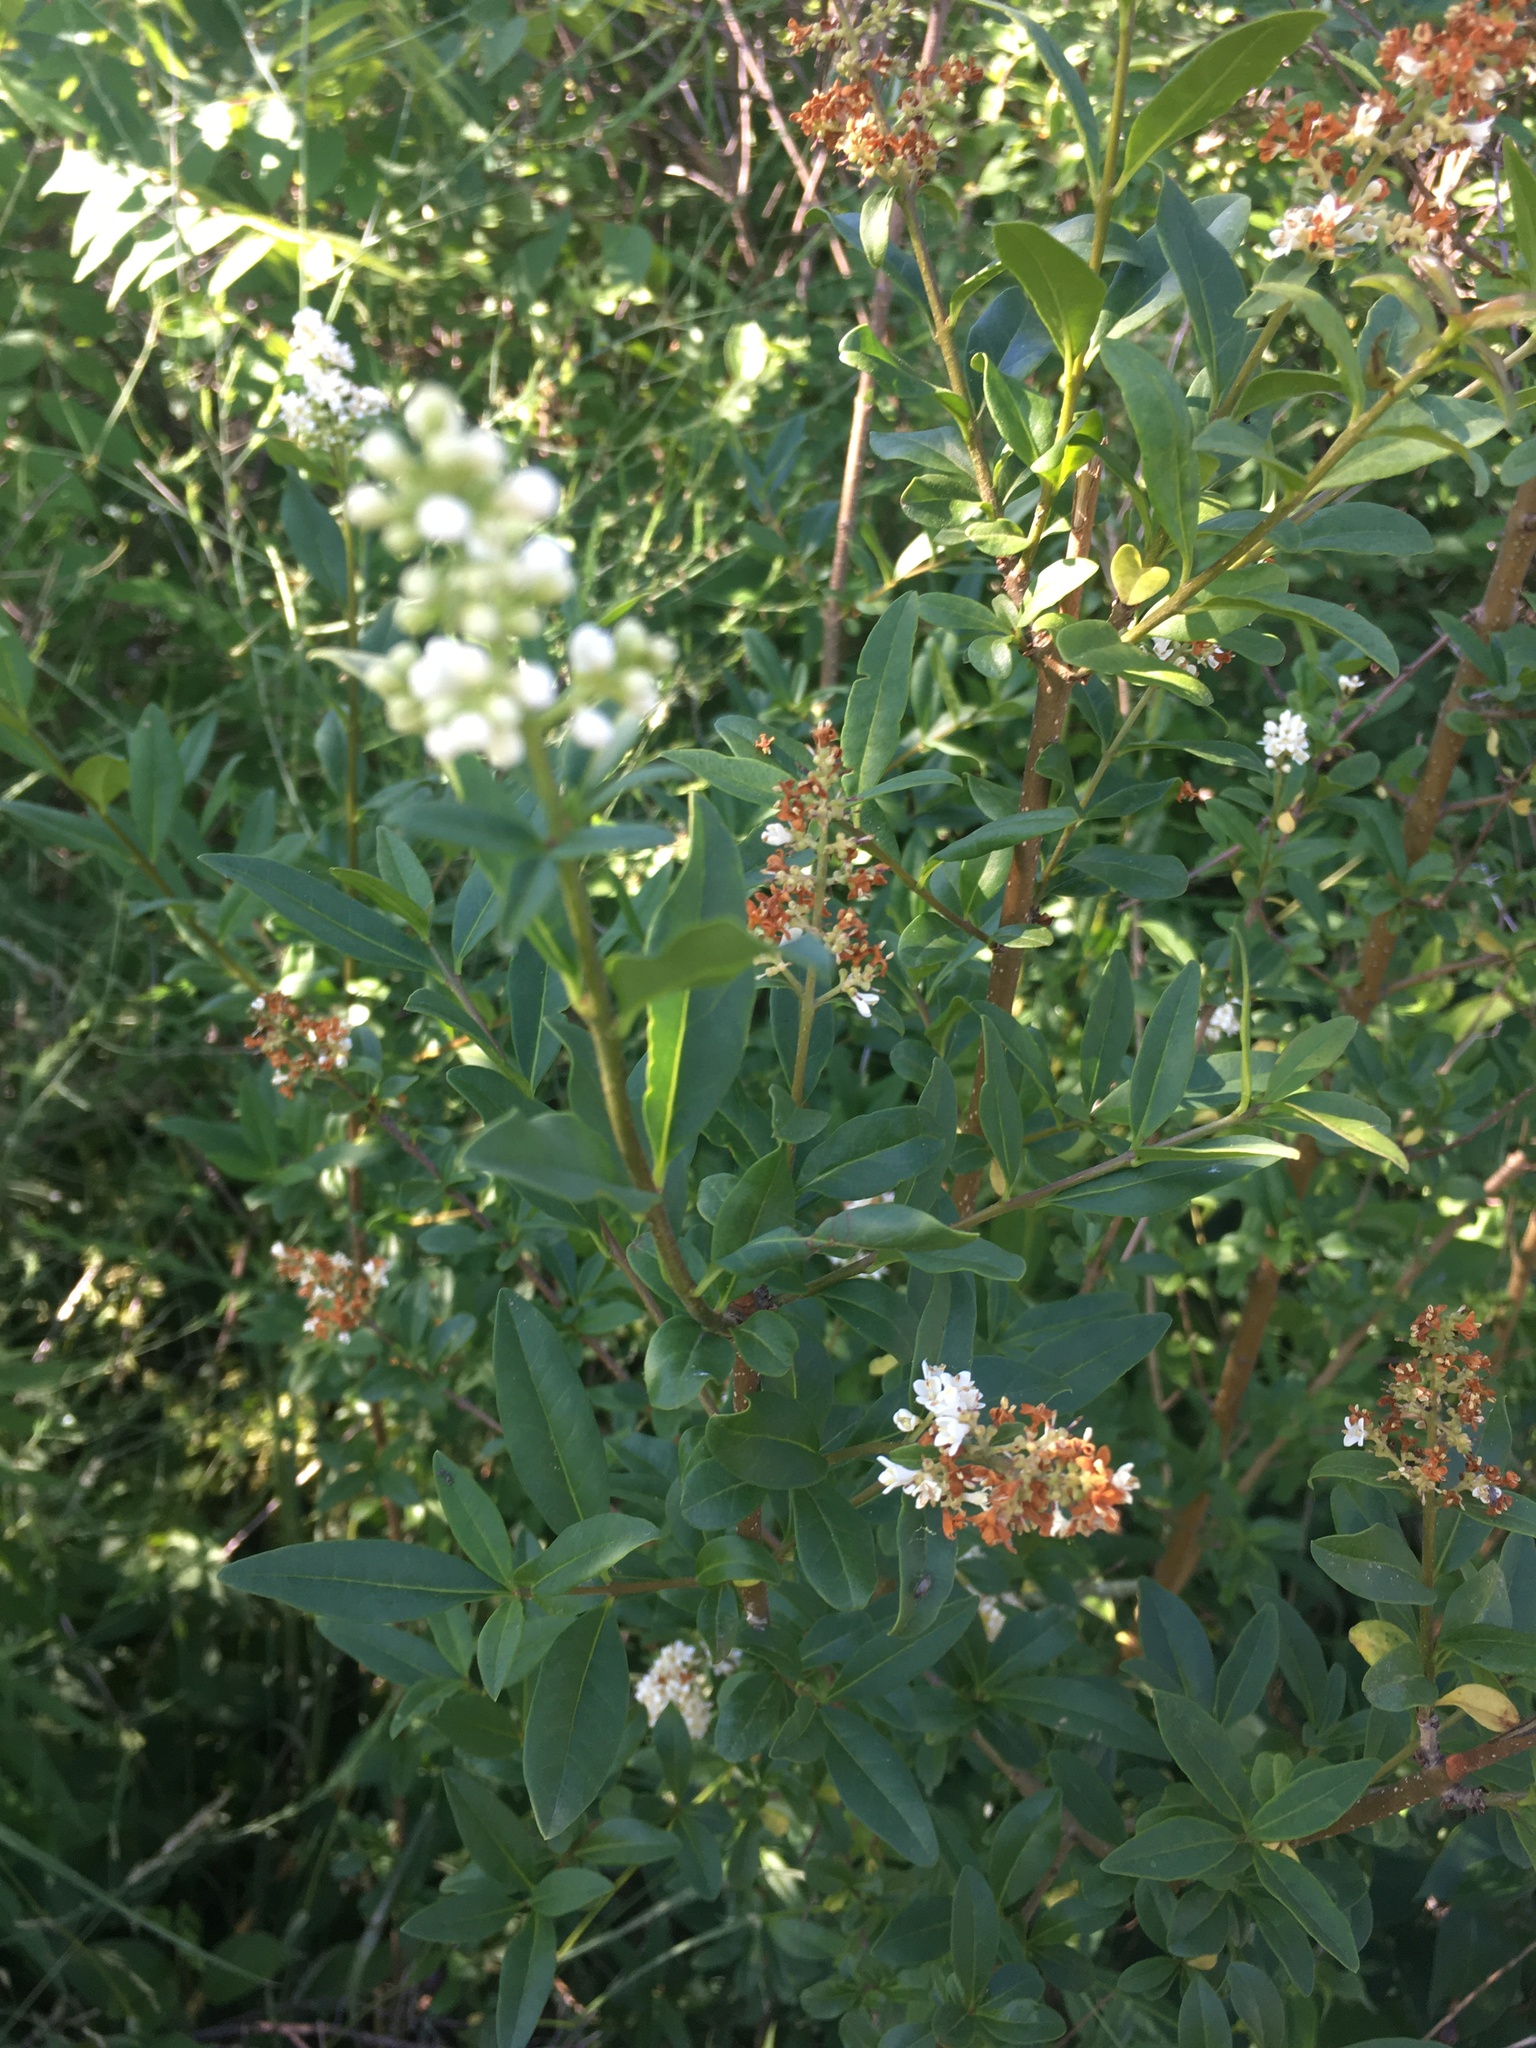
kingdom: Plantae
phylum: Tracheophyta
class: Magnoliopsida
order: Lamiales
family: Oleaceae
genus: Ligustrum
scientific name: Ligustrum vulgare
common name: Wild privet
